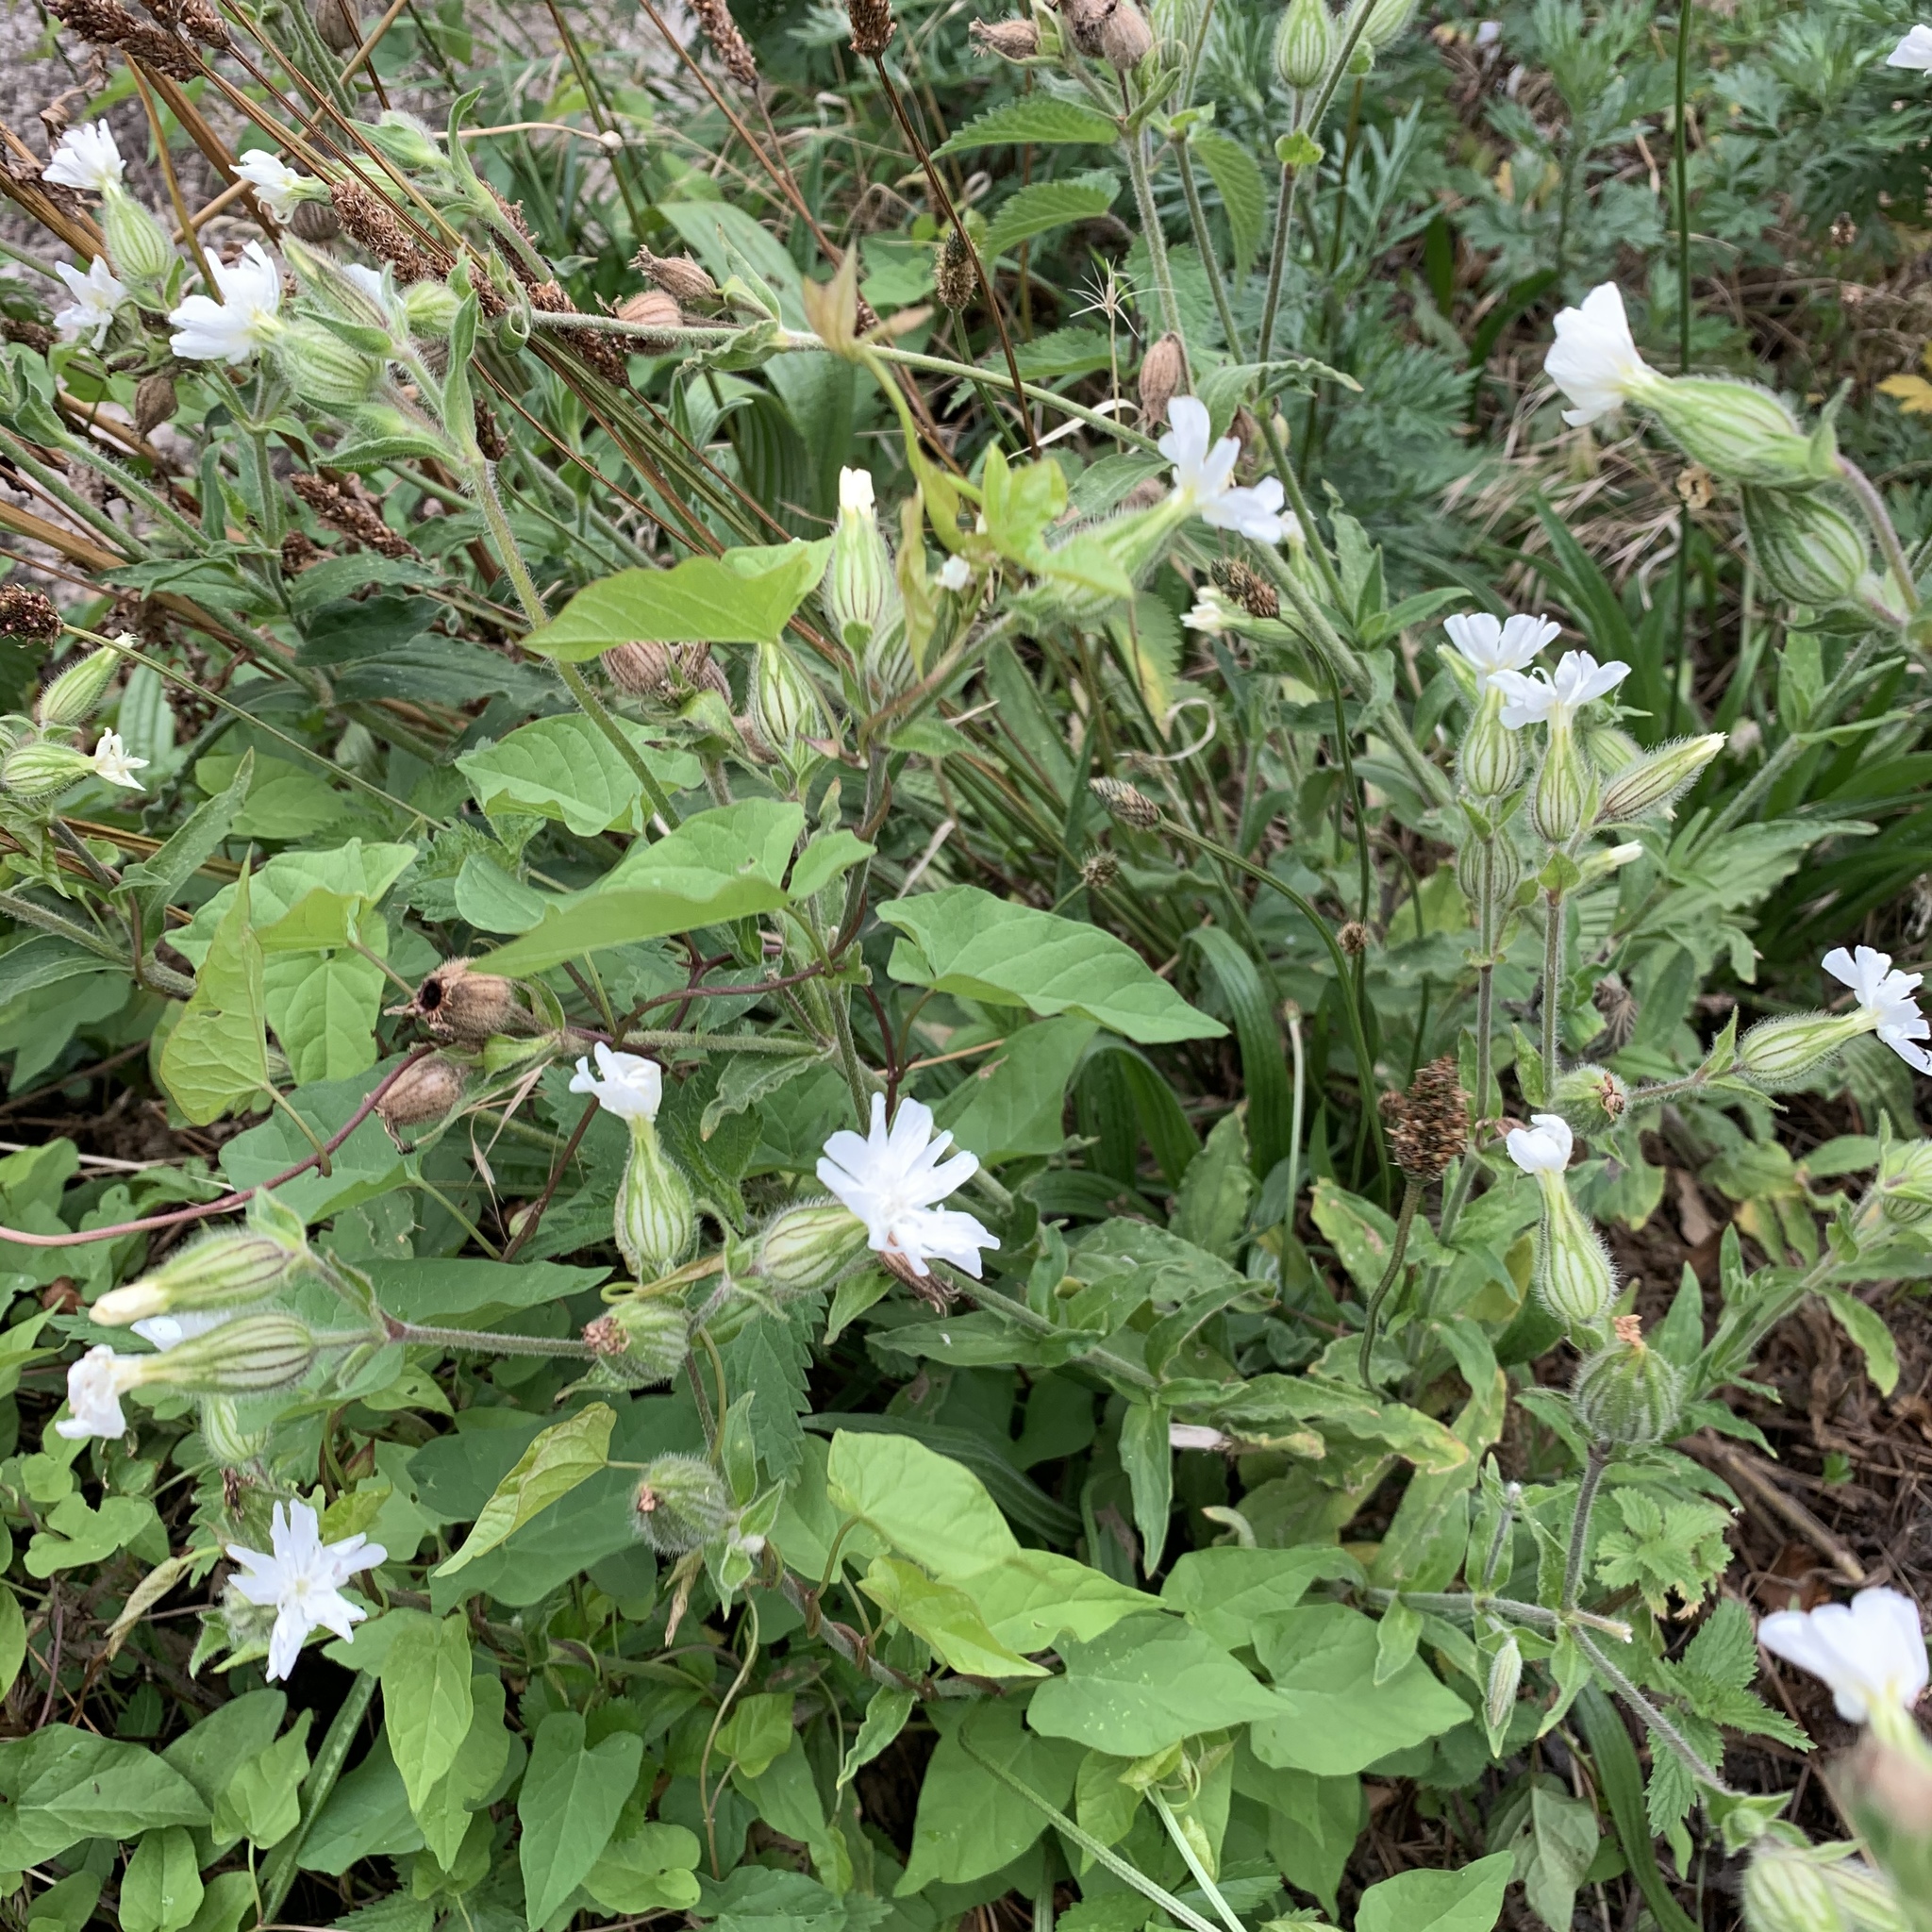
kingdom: Plantae
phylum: Tracheophyta
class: Magnoliopsida
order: Caryophyllales
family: Caryophyllaceae
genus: Silene
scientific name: Silene latifolia
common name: White campion
